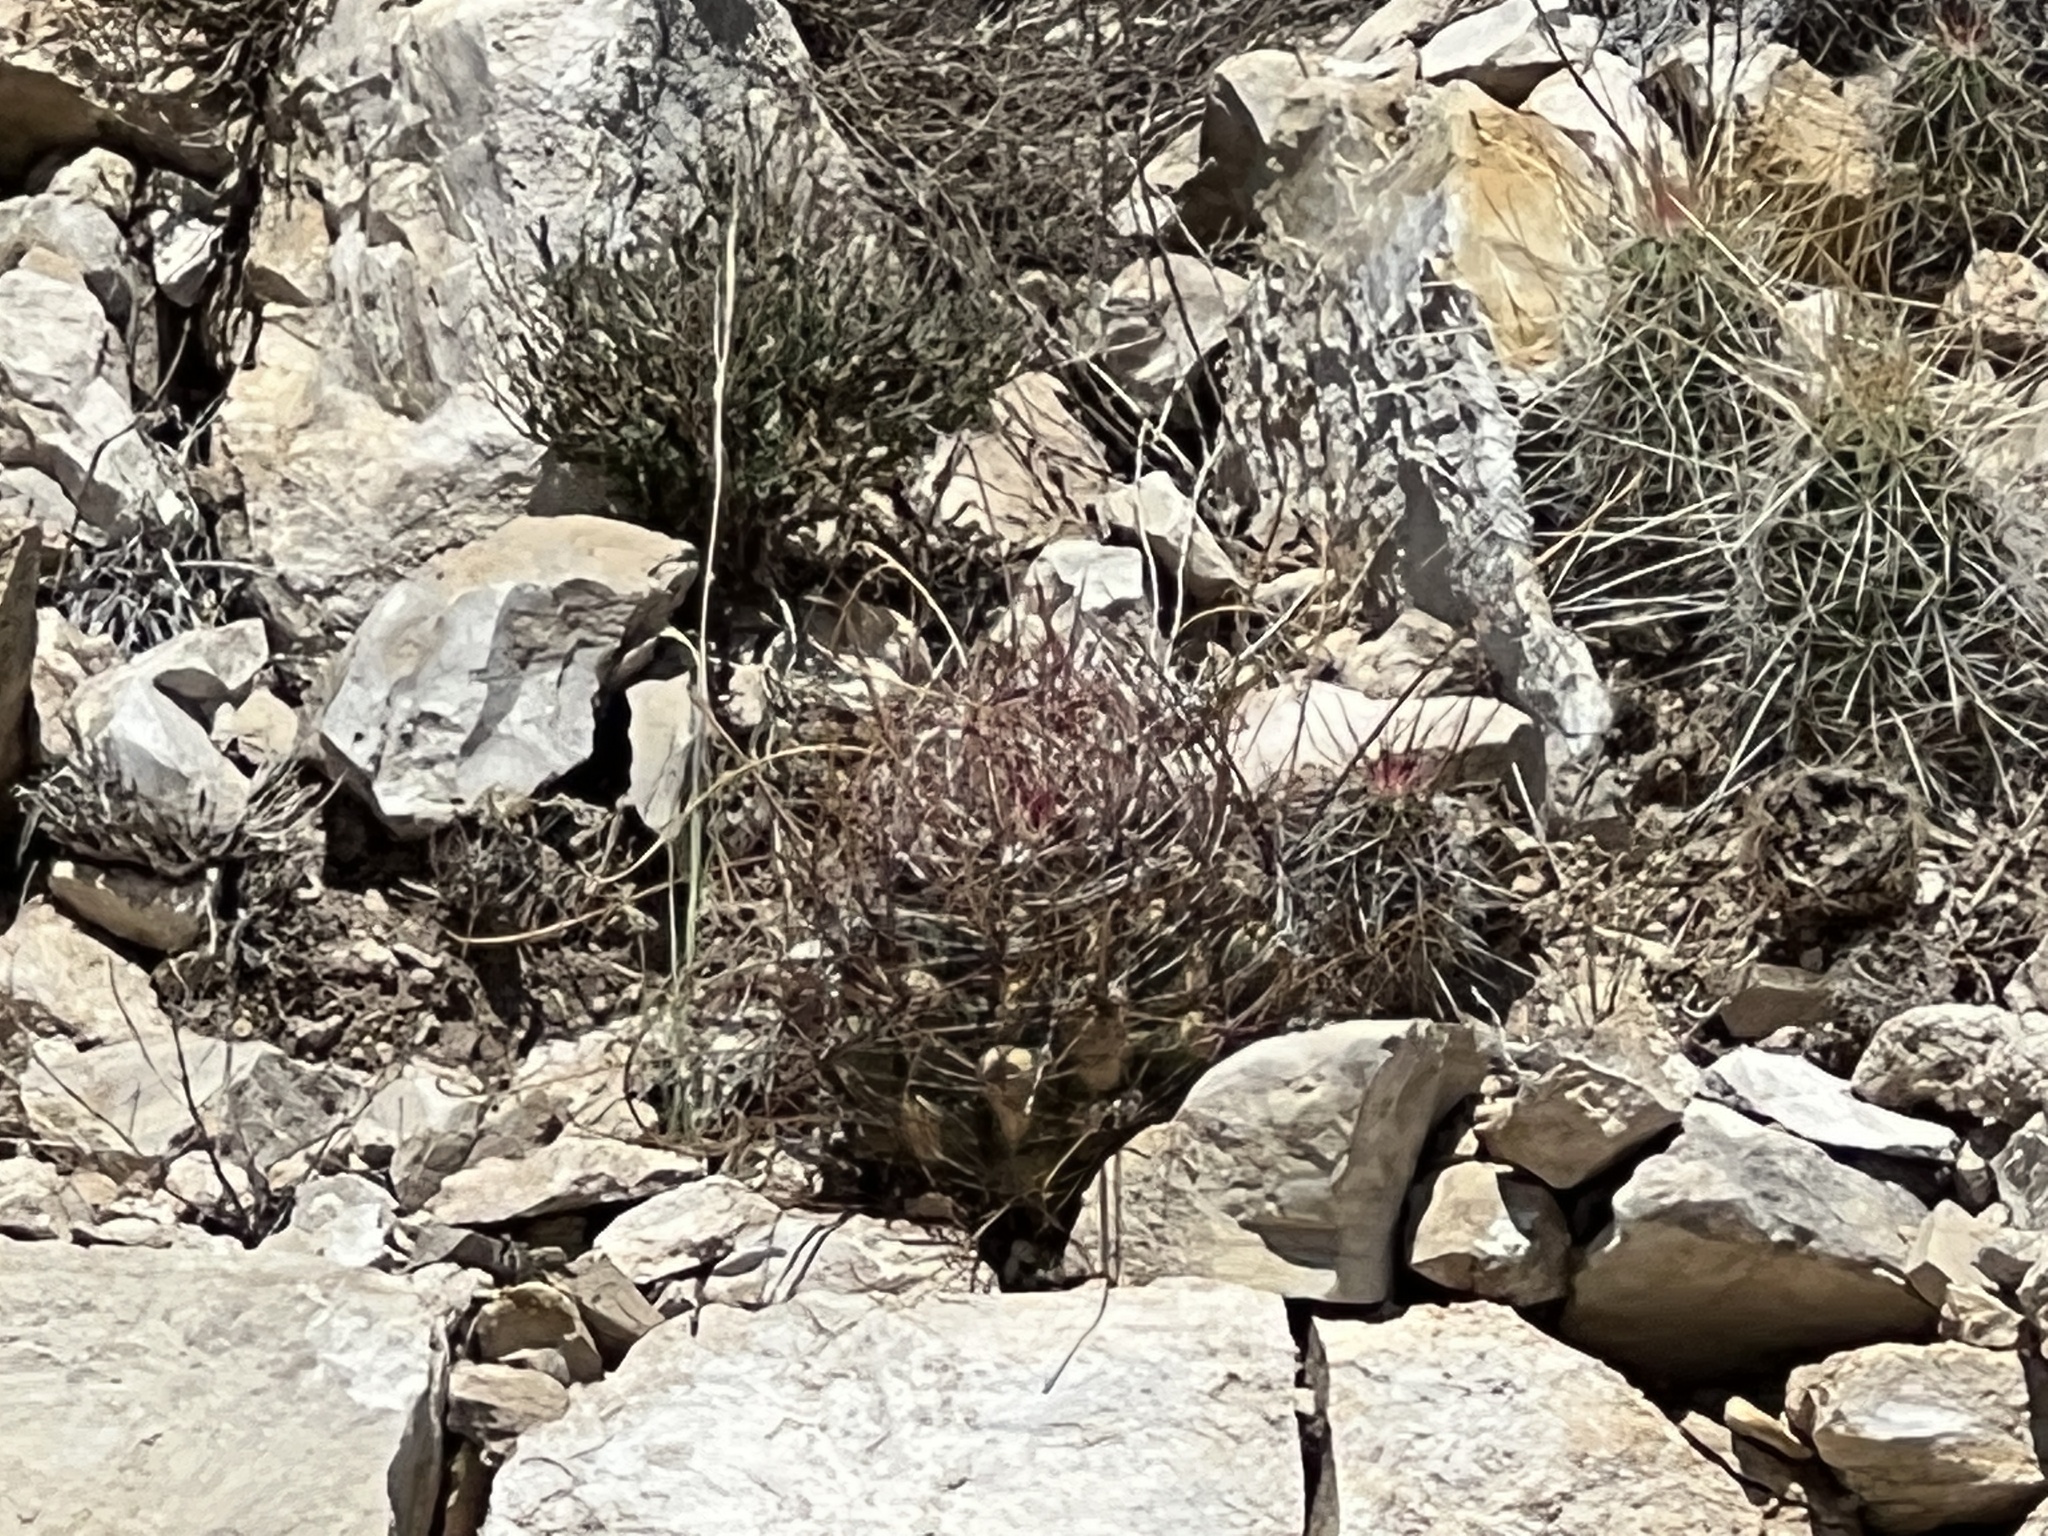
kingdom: Plantae
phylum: Tracheophyta
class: Magnoliopsida
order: Caryophyllales
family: Cactaceae
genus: Bisnaga
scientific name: Bisnaga hamatacantha
